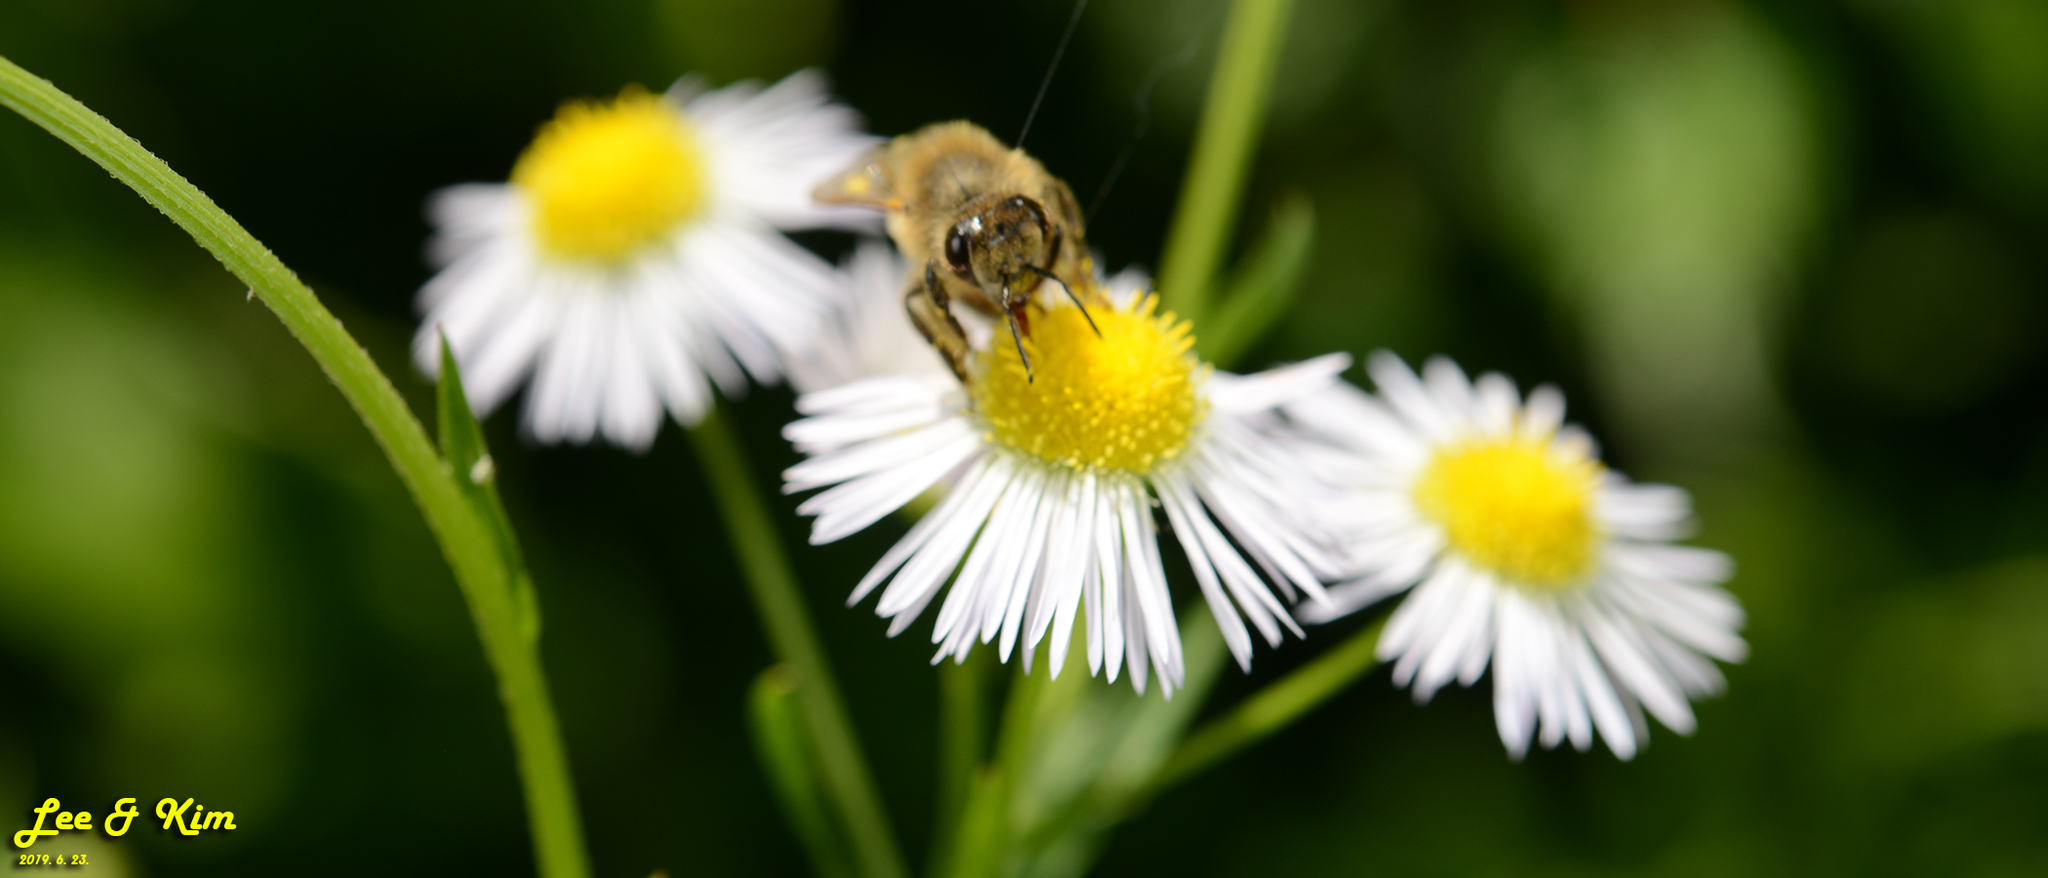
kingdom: Animalia
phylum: Arthropoda
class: Insecta
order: Hymenoptera
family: Apidae
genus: Apis
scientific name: Apis mellifera
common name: Honey bee
